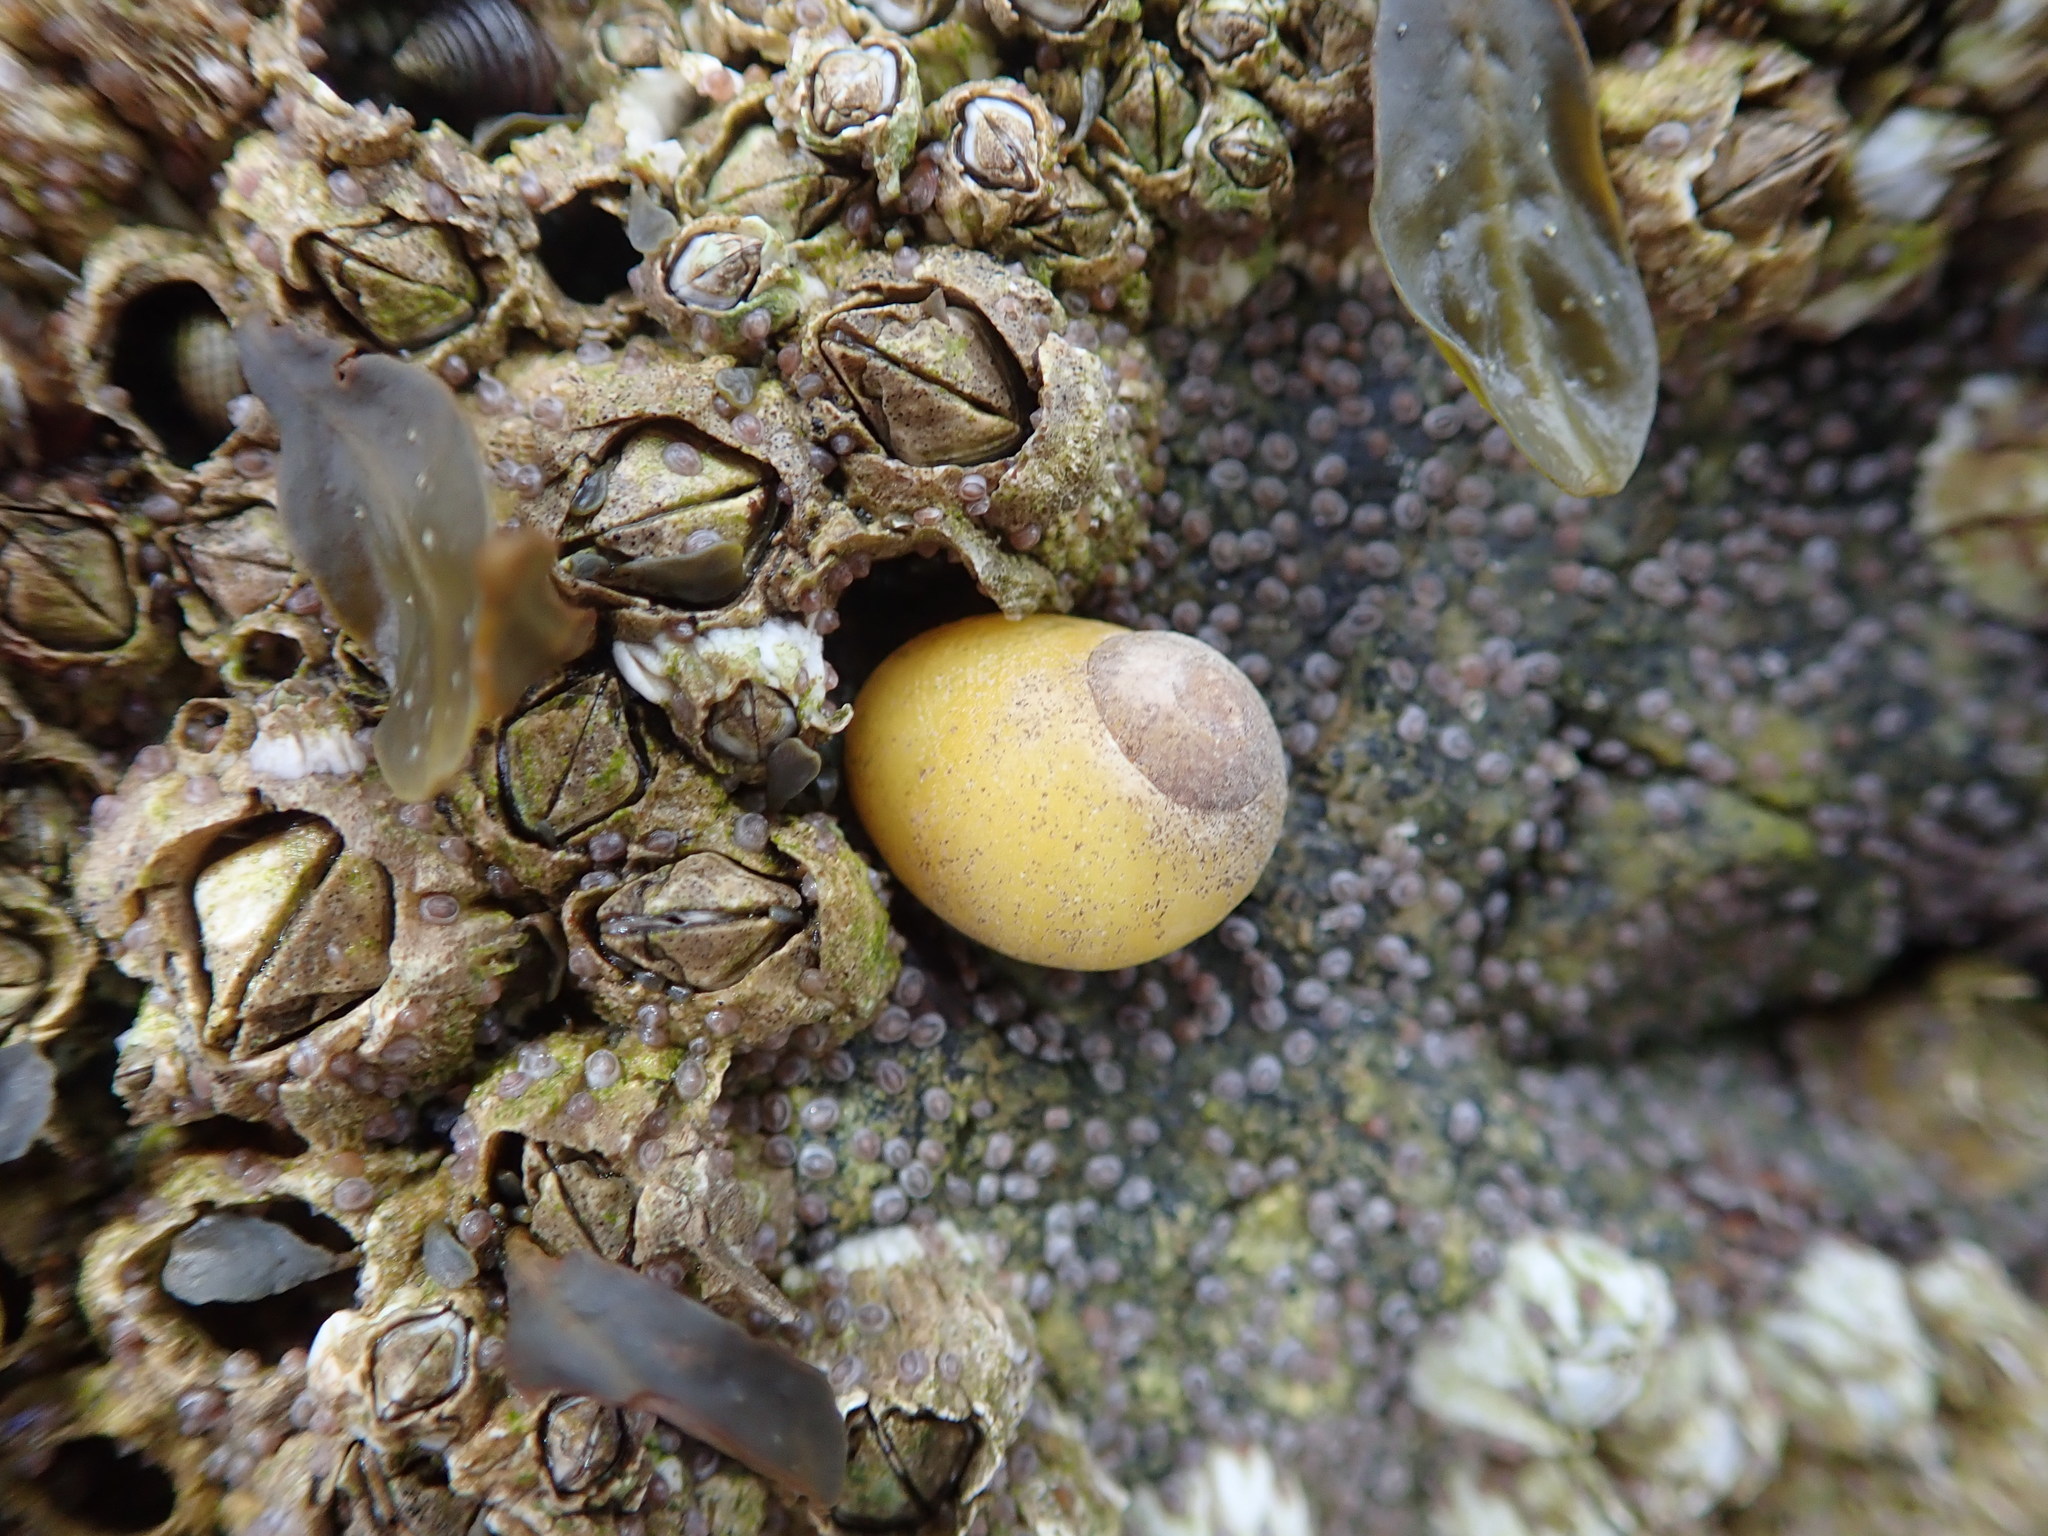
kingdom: Animalia
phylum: Mollusca
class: Gastropoda
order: Littorinimorpha
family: Littorinidae
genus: Littorina
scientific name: Littorina obtusata
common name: Flat periwinkle
